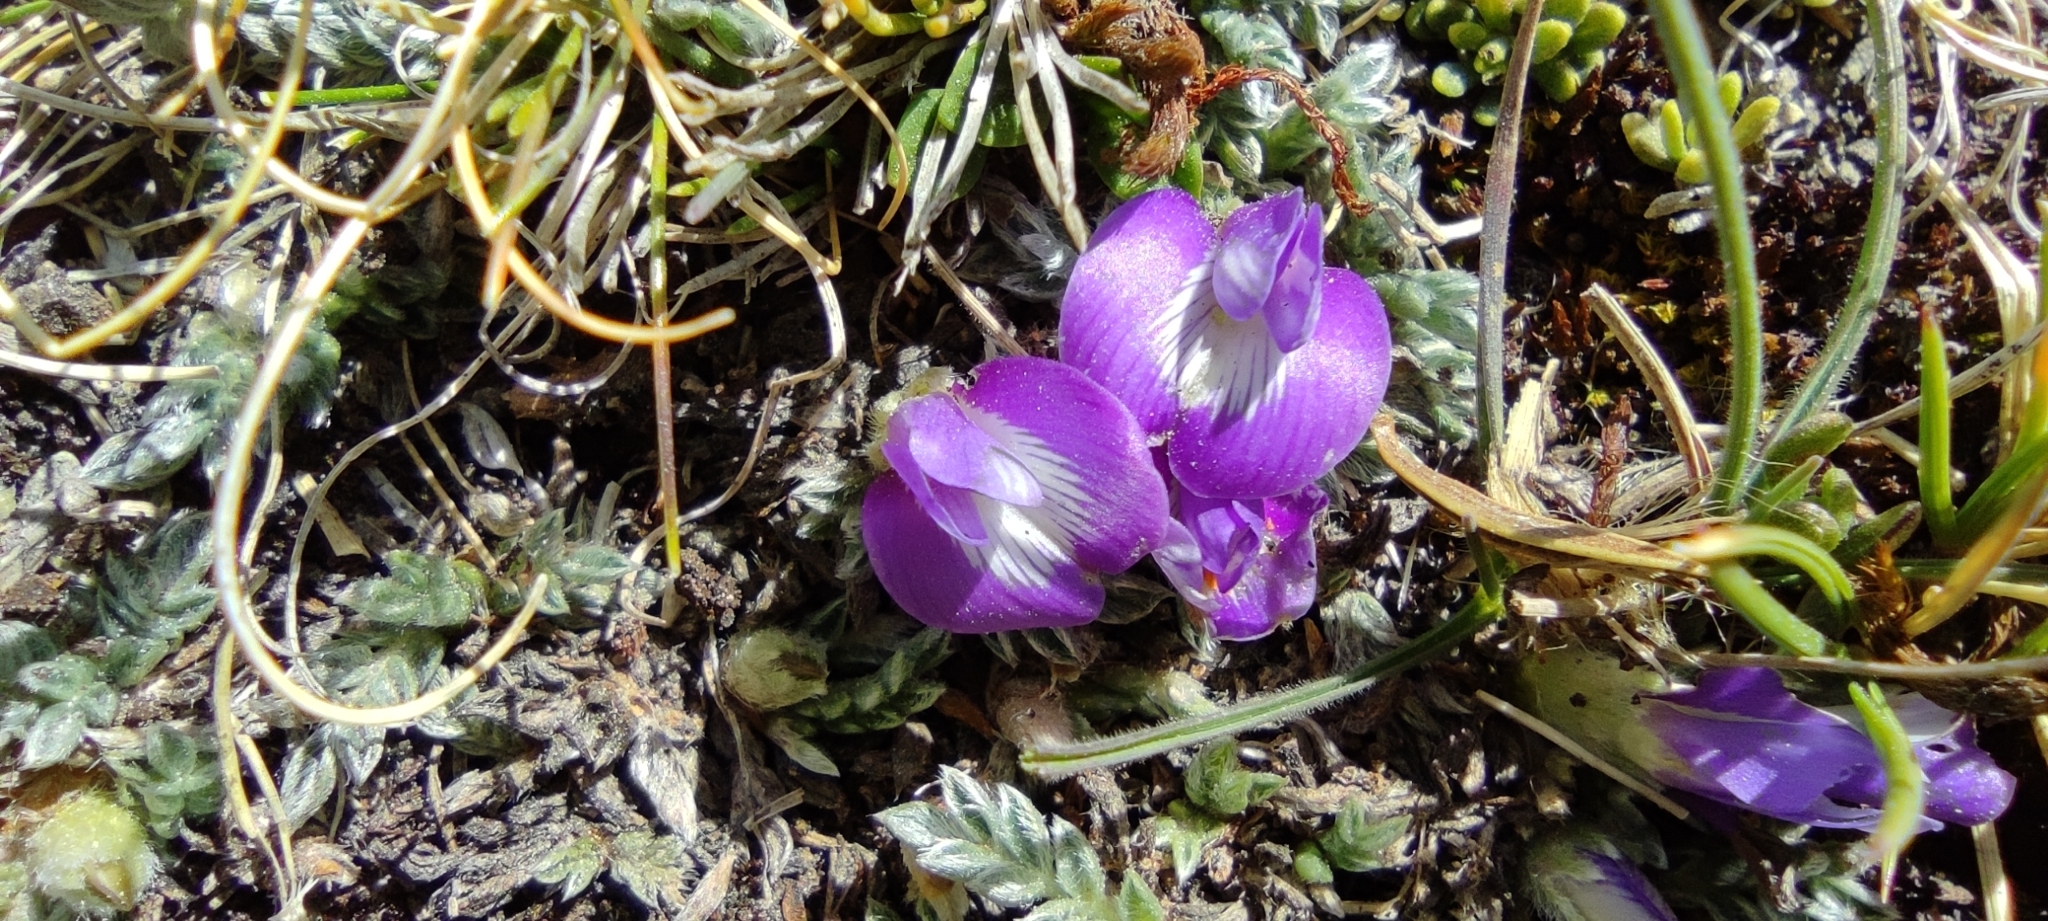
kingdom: Plantae
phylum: Tracheophyta
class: Magnoliopsida
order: Fabales
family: Fabaceae
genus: Astragalus
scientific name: Astragalus uniflorus
